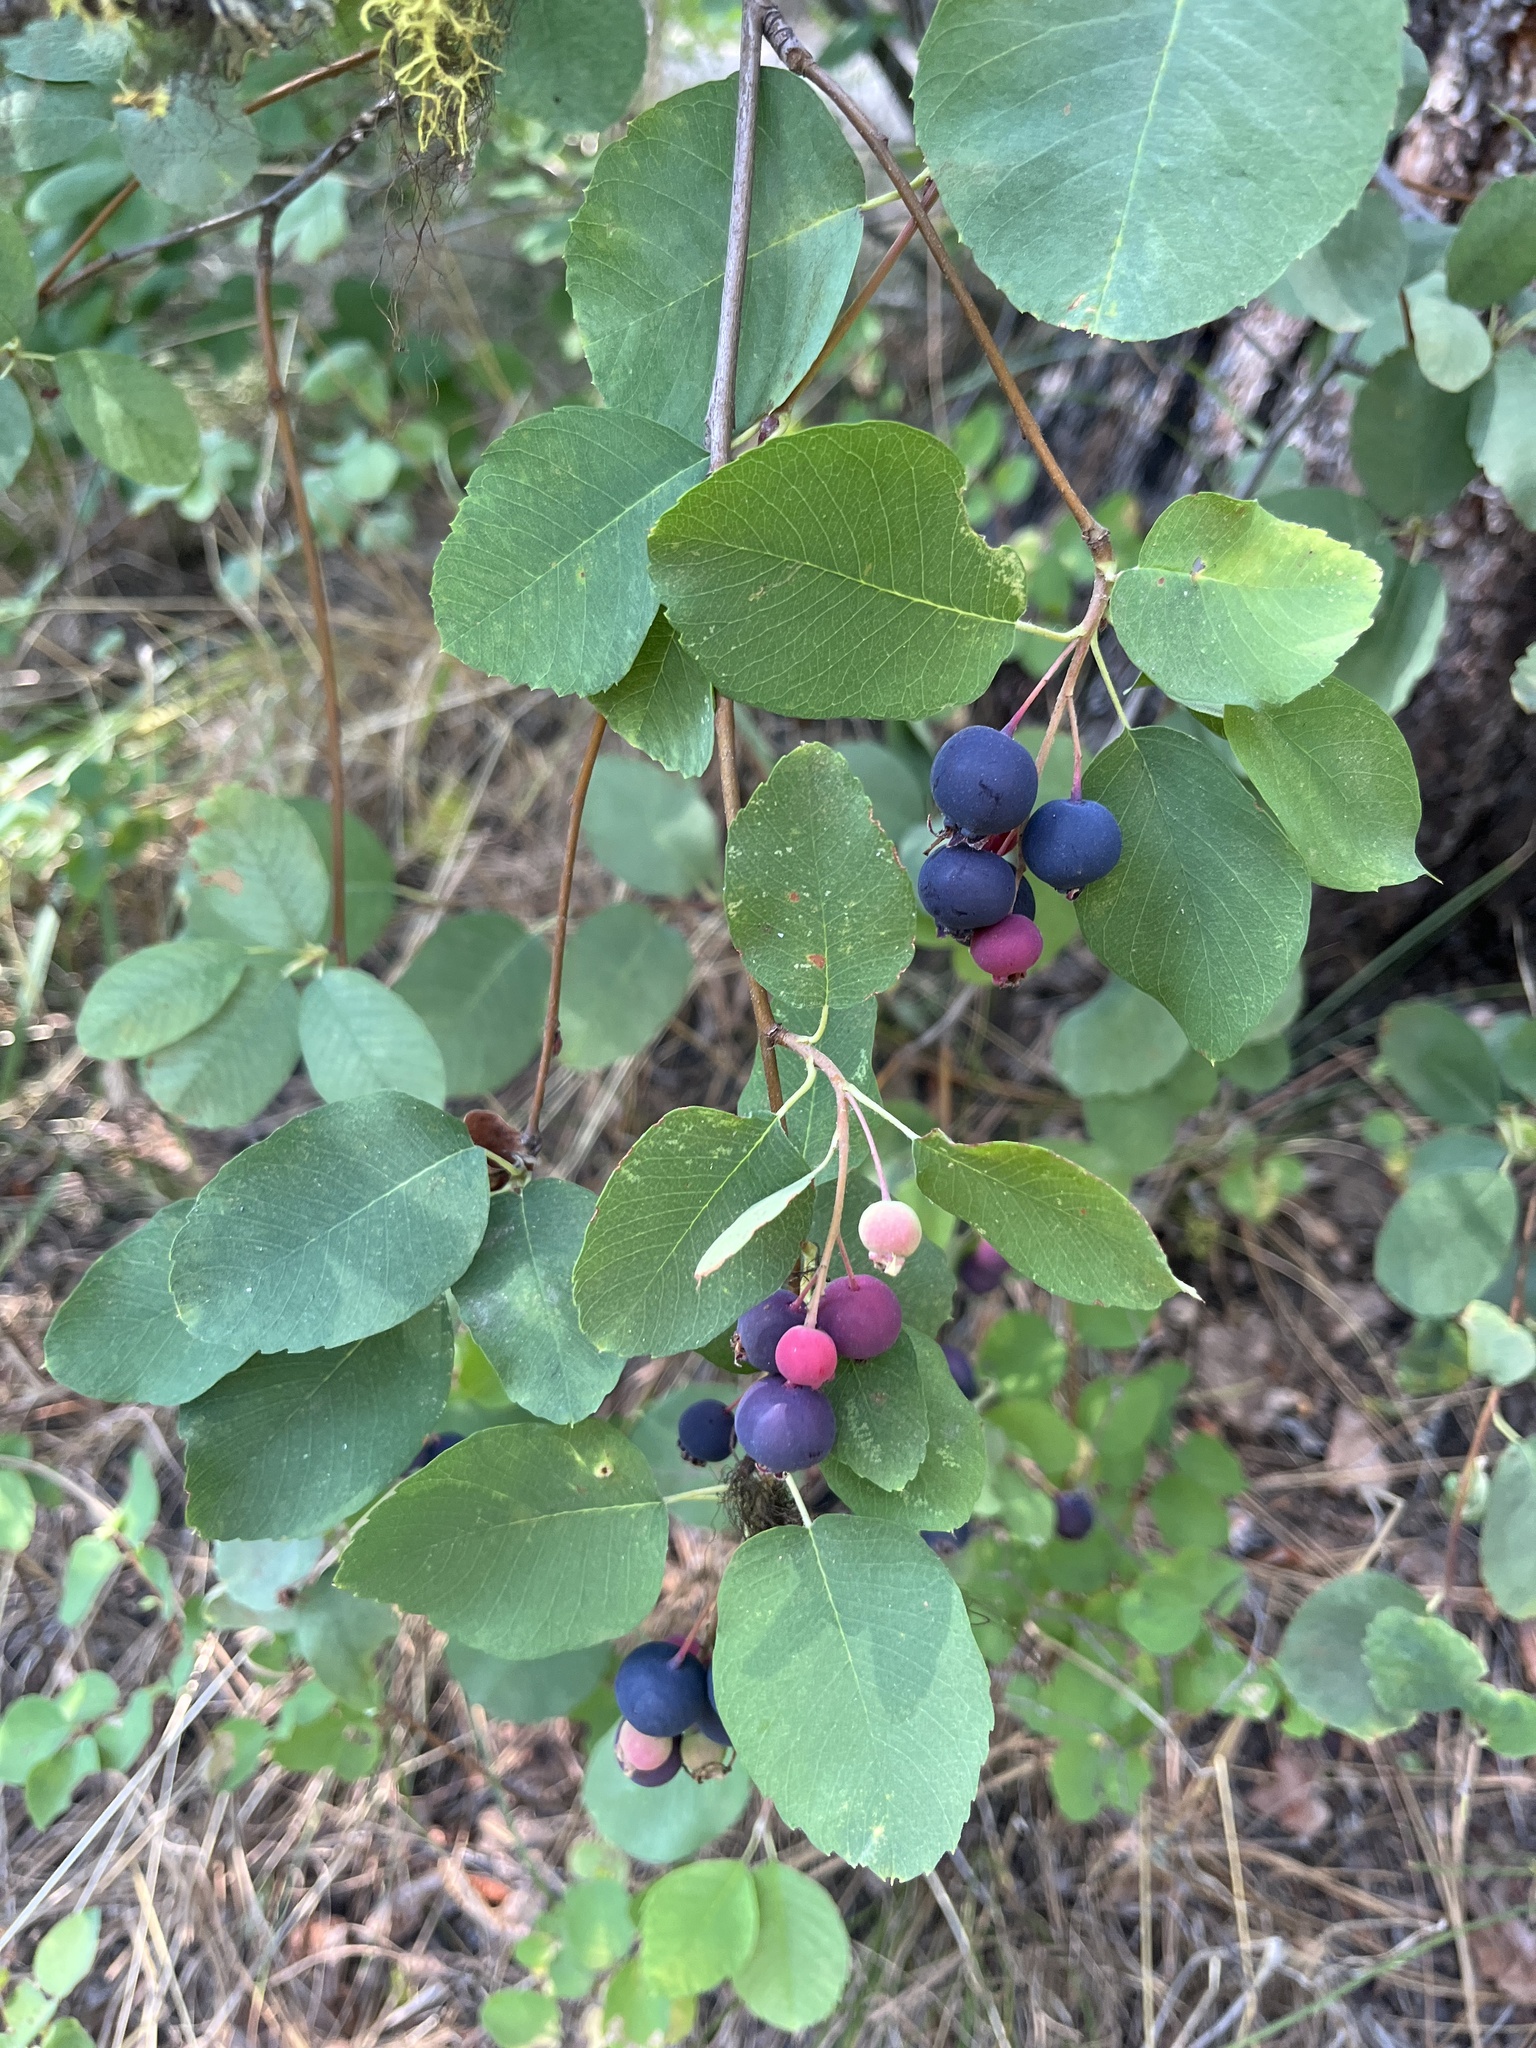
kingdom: Plantae
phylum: Tracheophyta
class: Magnoliopsida
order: Rosales
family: Rosaceae
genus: Amelanchier
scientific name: Amelanchier alnifolia
